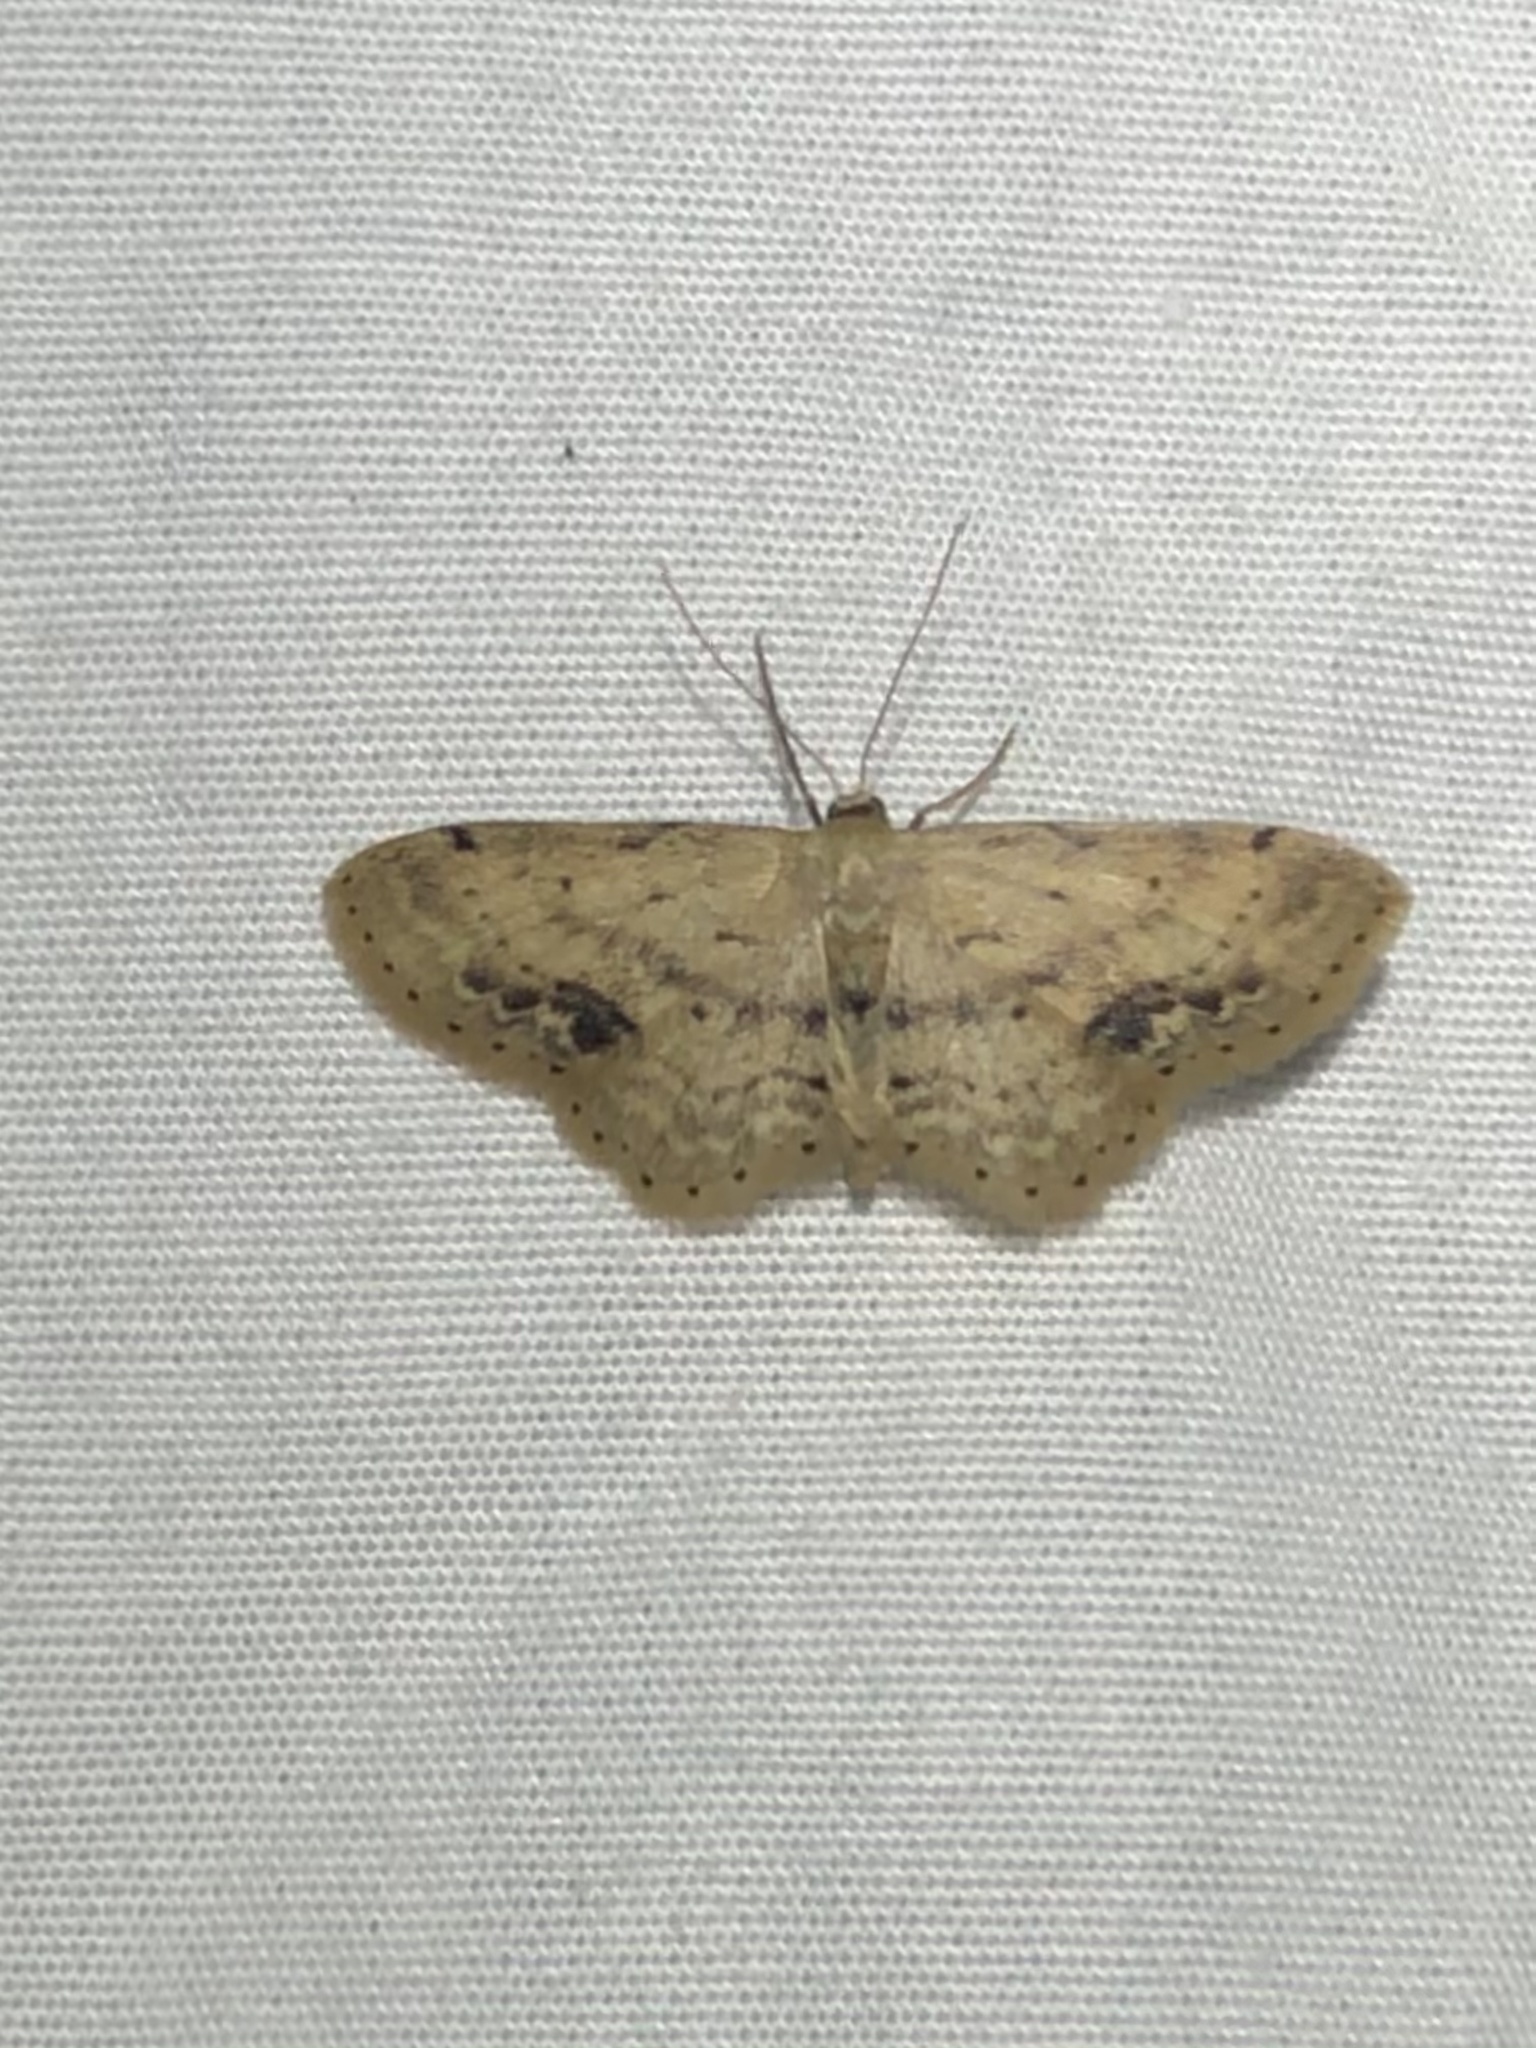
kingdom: Animalia
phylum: Arthropoda
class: Insecta
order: Lepidoptera
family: Geometridae
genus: Idaea
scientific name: Idaea dimidiata
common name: Single-dotted wave
